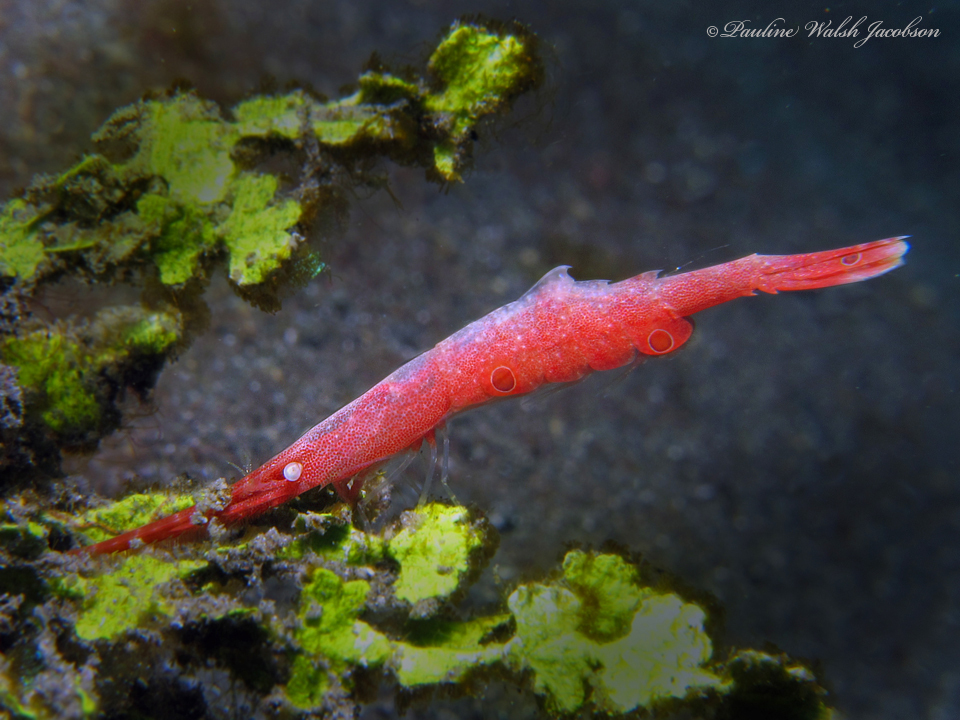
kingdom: Animalia
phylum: Arthropoda
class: Malacostraca
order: Decapoda
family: Hippolytidae
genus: Tozeuma
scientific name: Tozeuma lanceolatum
